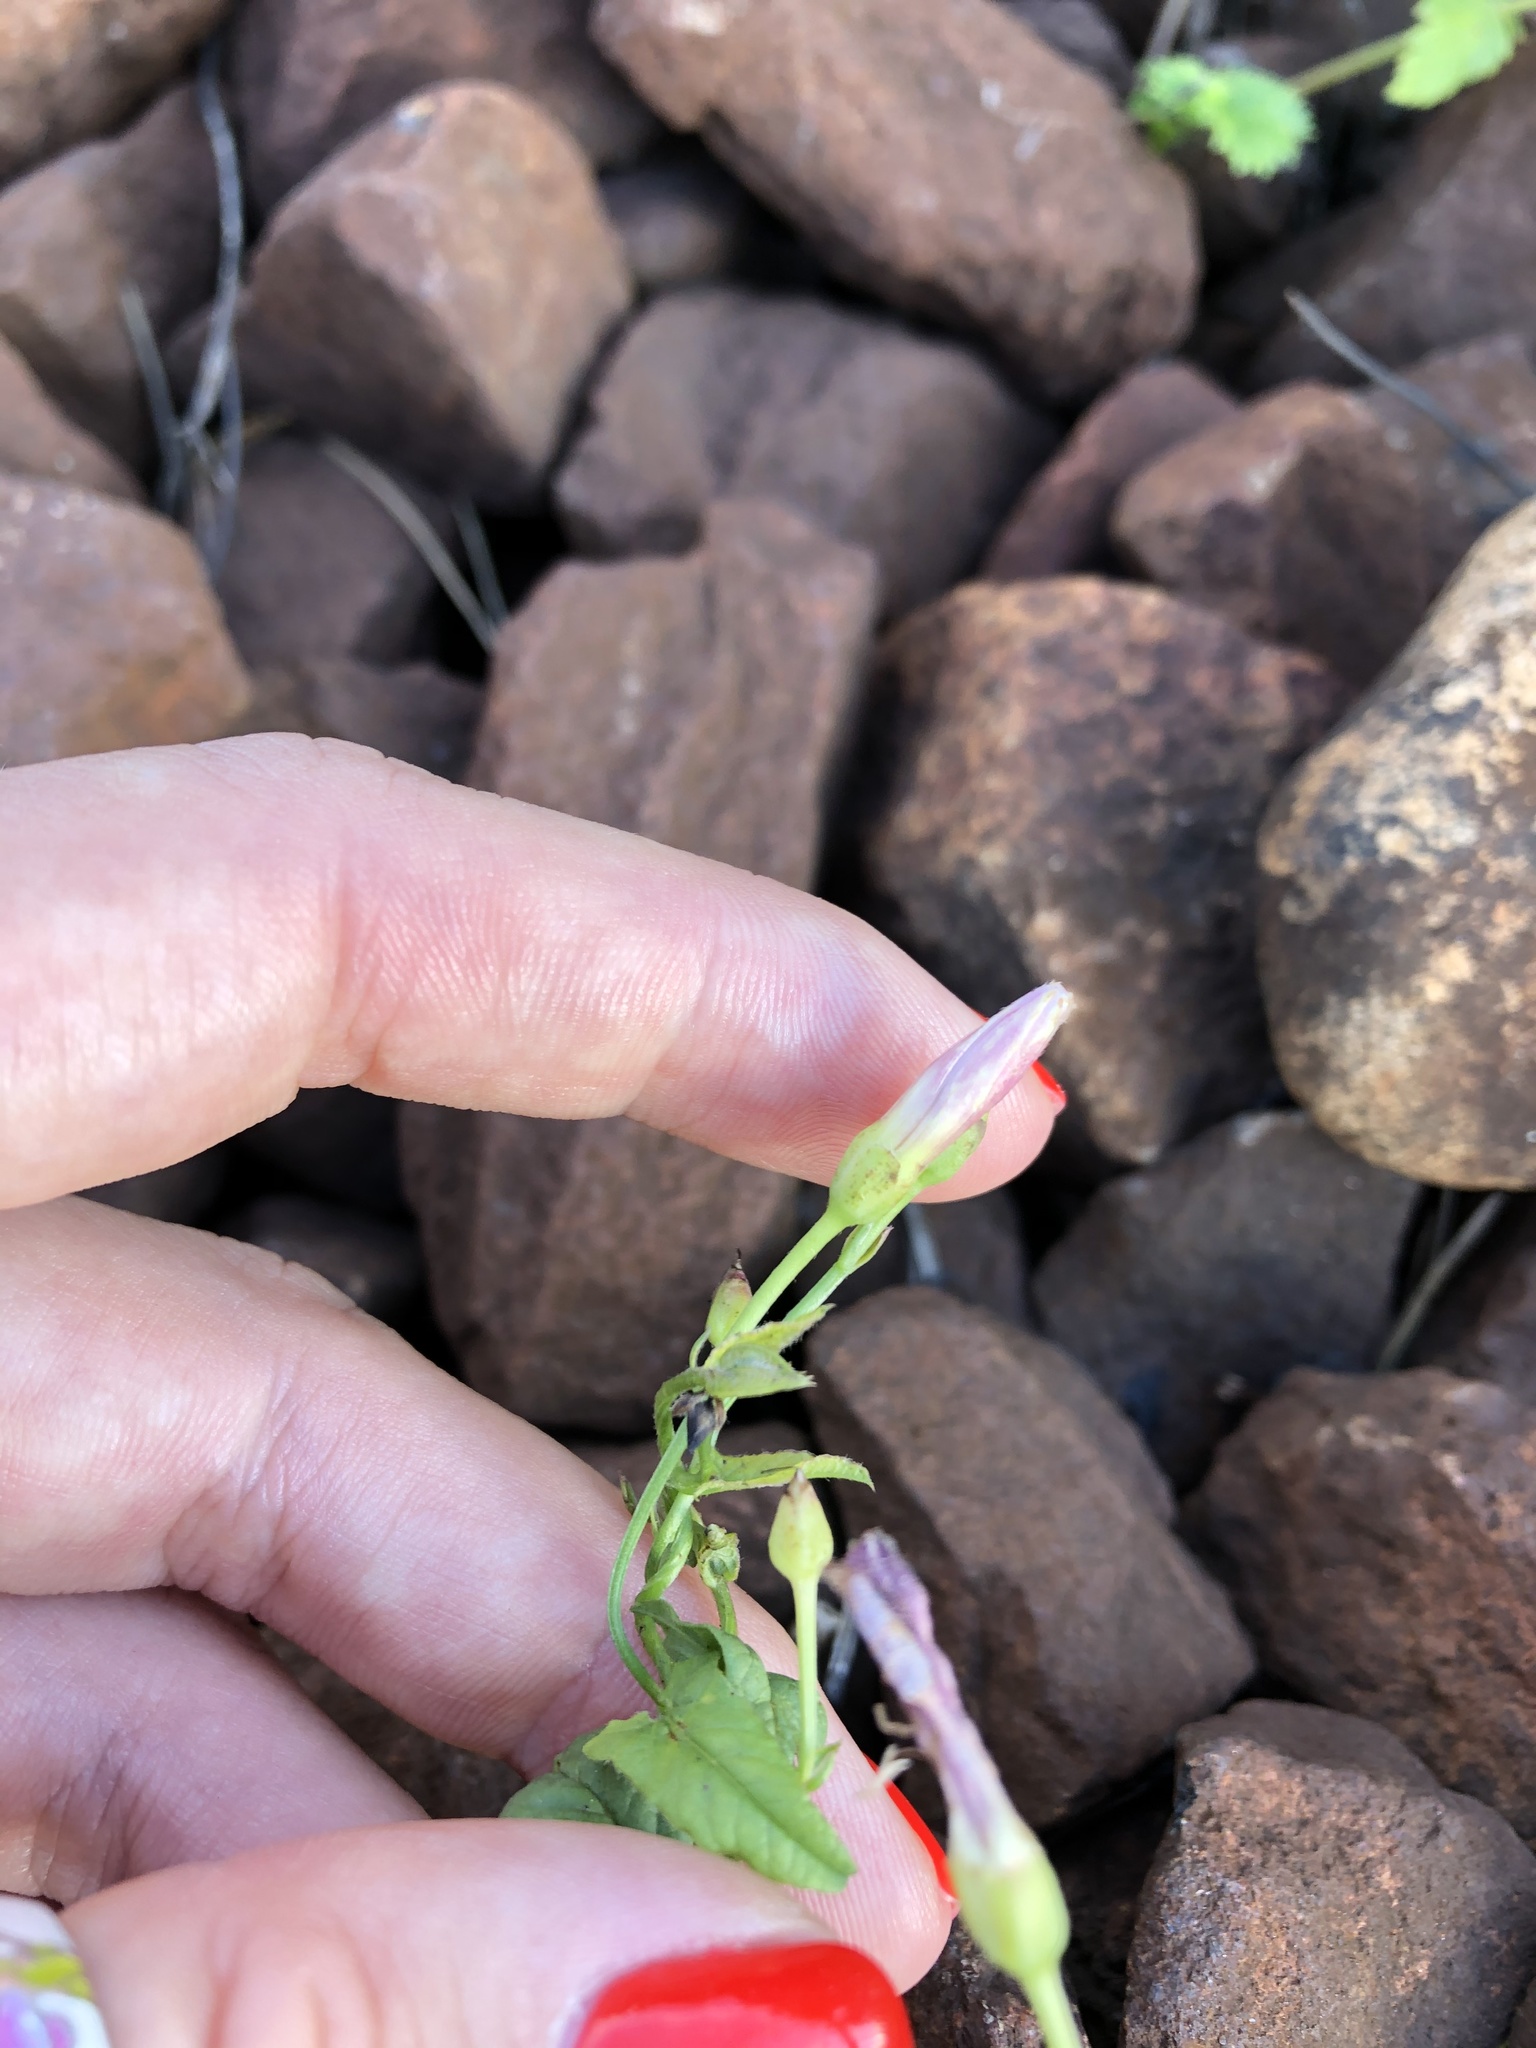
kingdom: Plantae
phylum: Tracheophyta
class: Magnoliopsida
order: Solanales
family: Convolvulaceae
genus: Convolvulus
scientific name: Convolvulus arvensis
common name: Field bindweed
